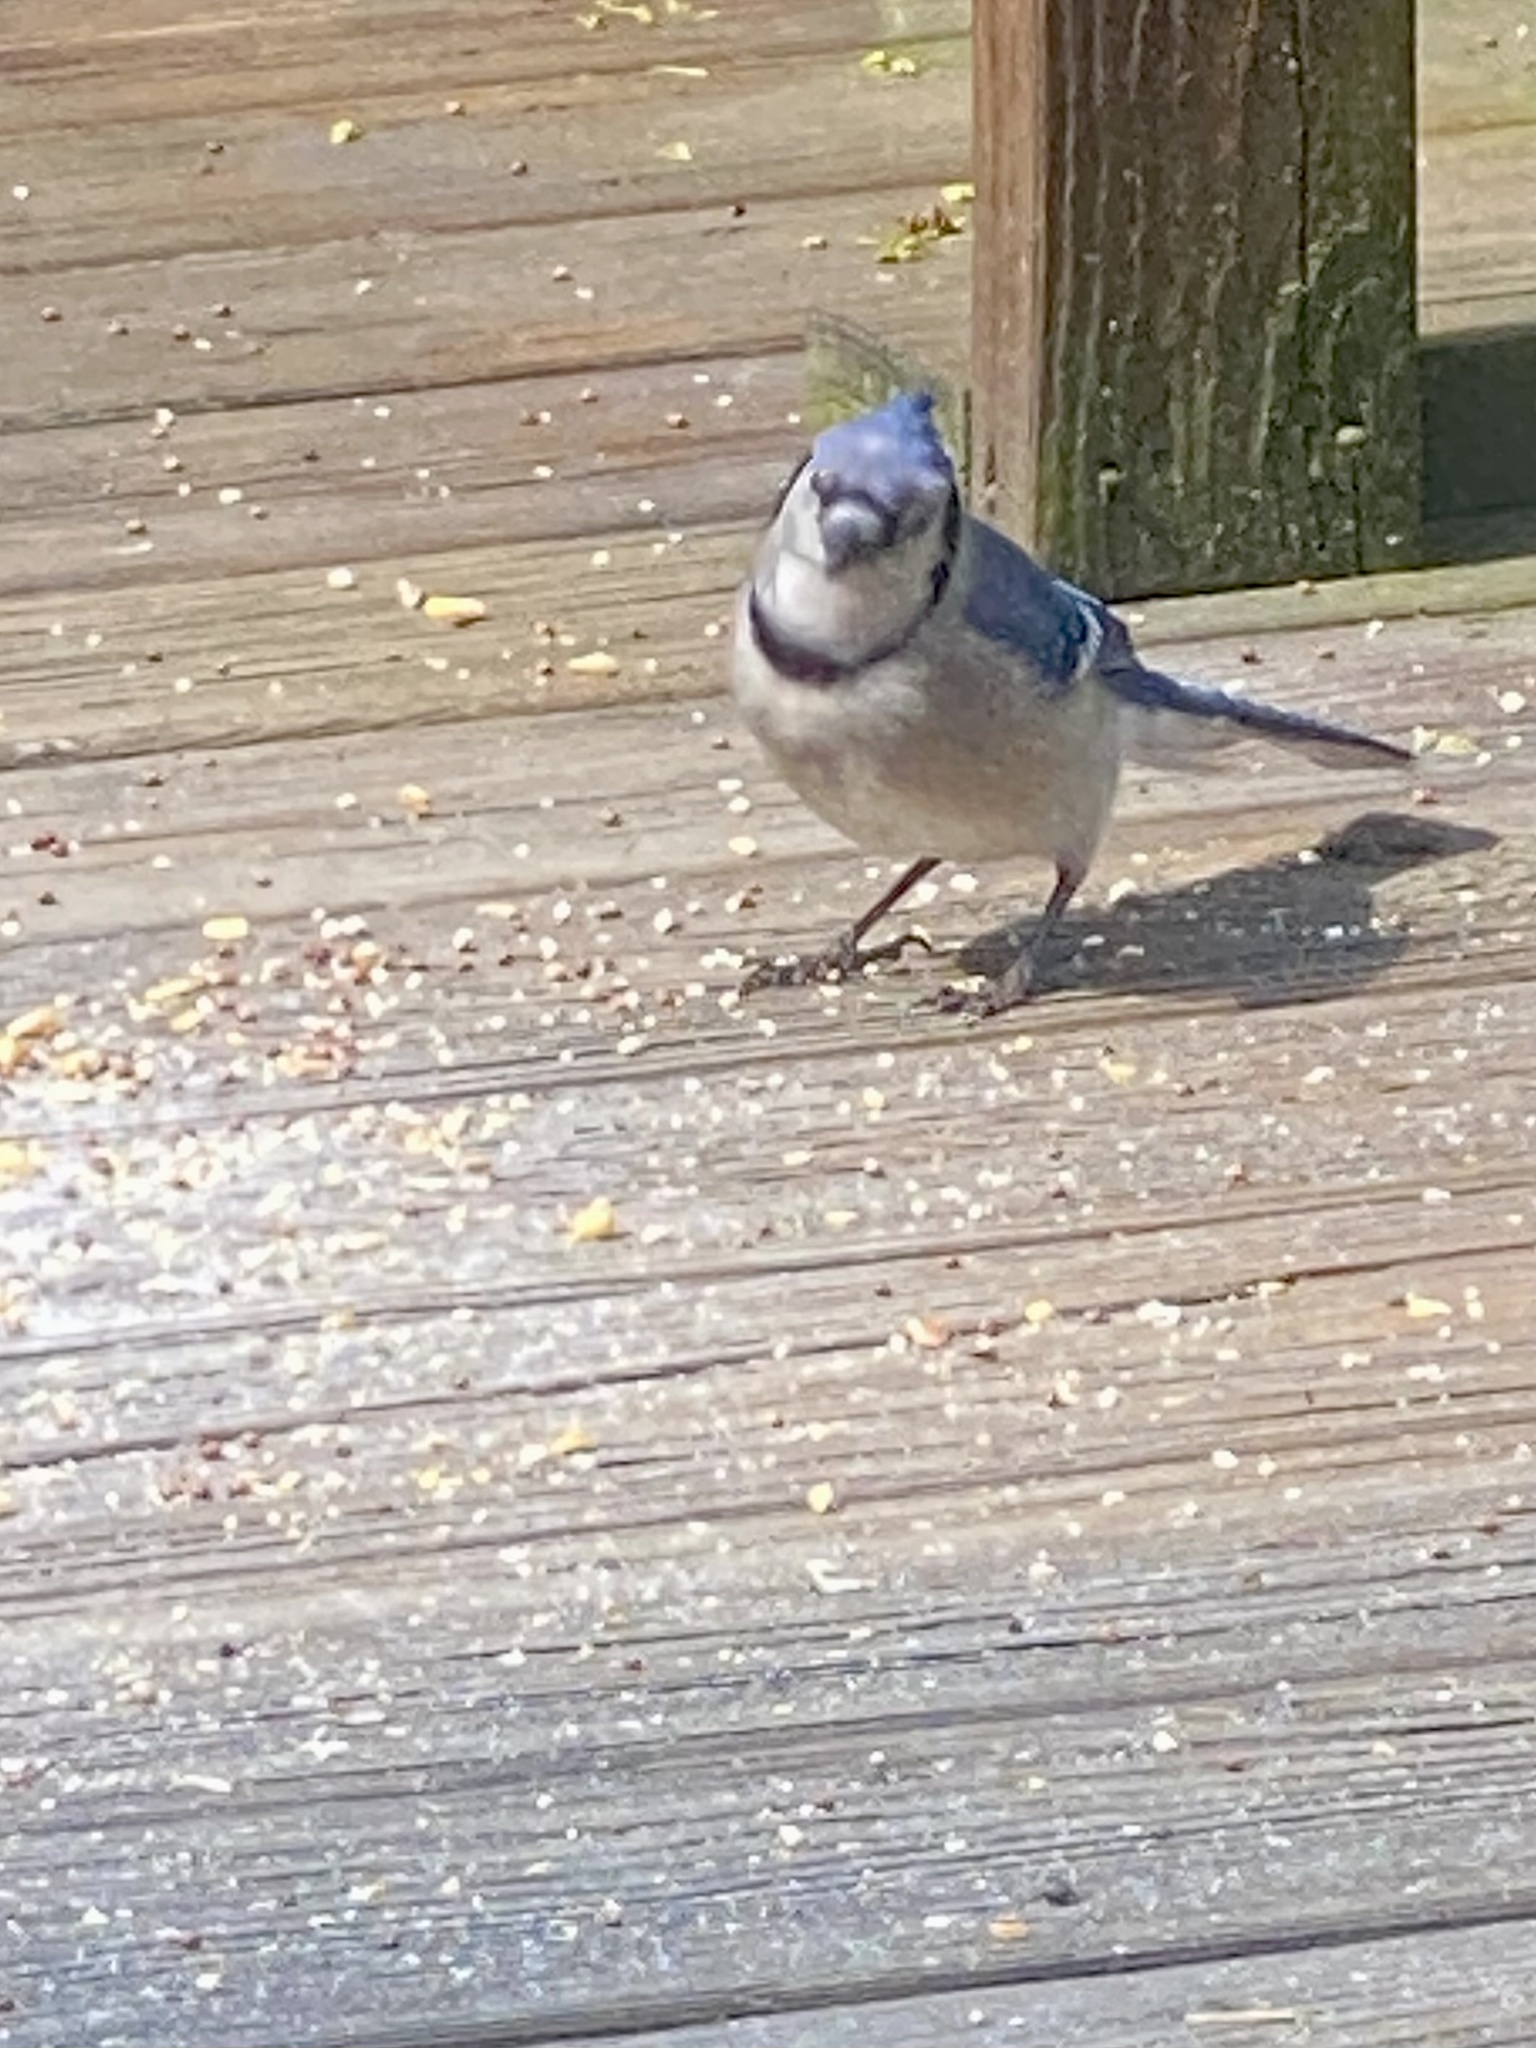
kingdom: Animalia
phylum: Chordata
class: Aves
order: Passeriformes
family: Corvidae
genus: Cyanocitta
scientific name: Cyanocitta cristata
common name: Blue jay
